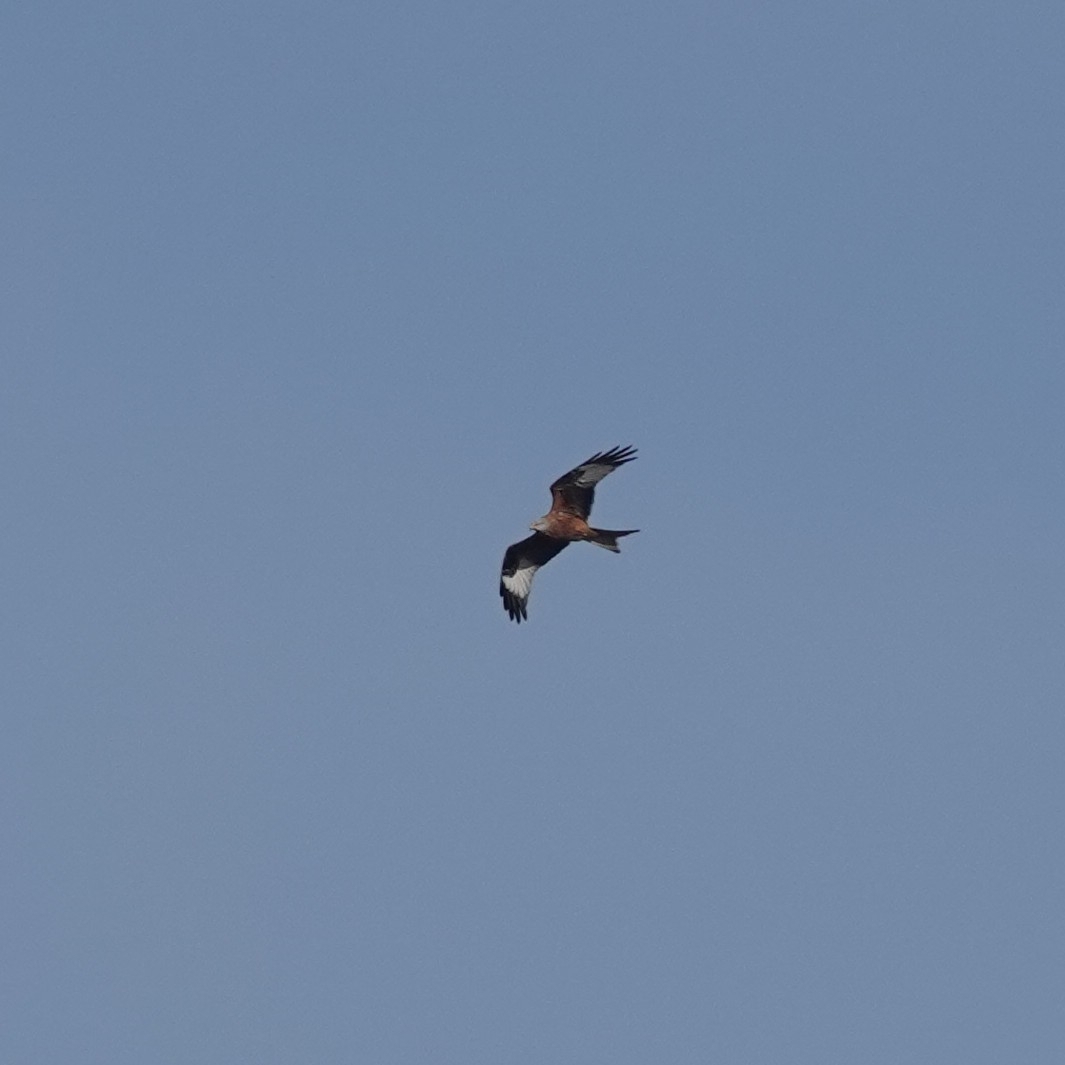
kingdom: Animalia
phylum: Chordata
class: Aves
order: Accipitriformes
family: Accipitridae
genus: Milvus
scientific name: Milvus milvus
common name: Red kite
